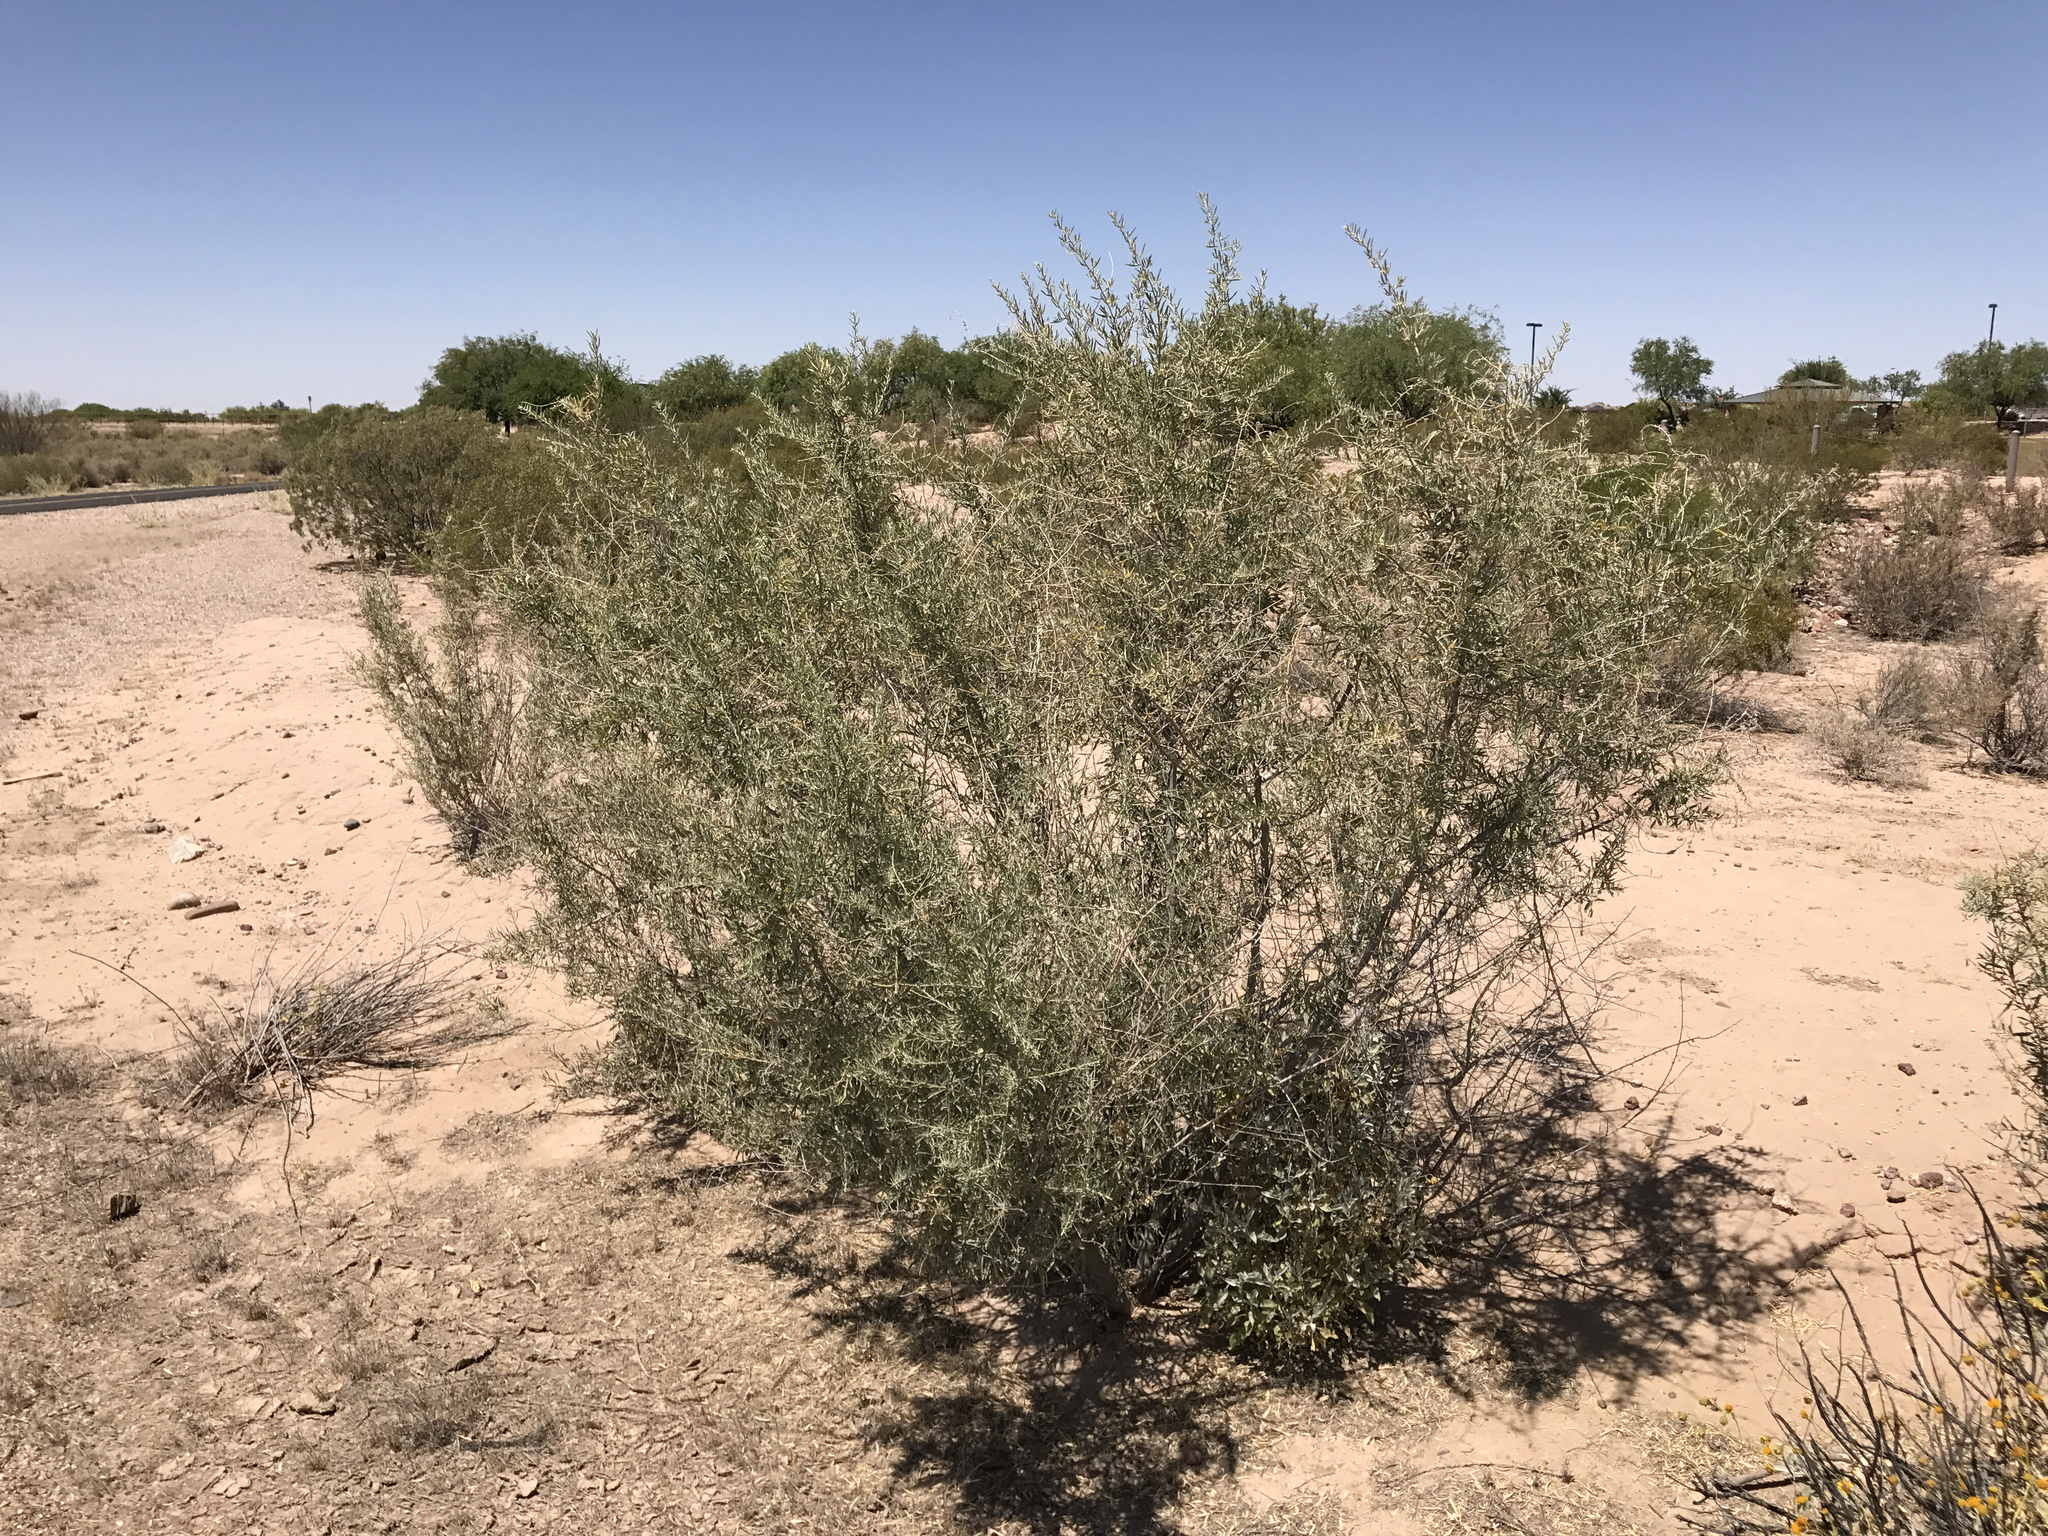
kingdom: Plantae
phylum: Tracheophyta
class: Magnoliopsida
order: Caryophyllales
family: Amaranthaceae
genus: Atriplex
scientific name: Atriplex canescens
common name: Four-wing saltbush
